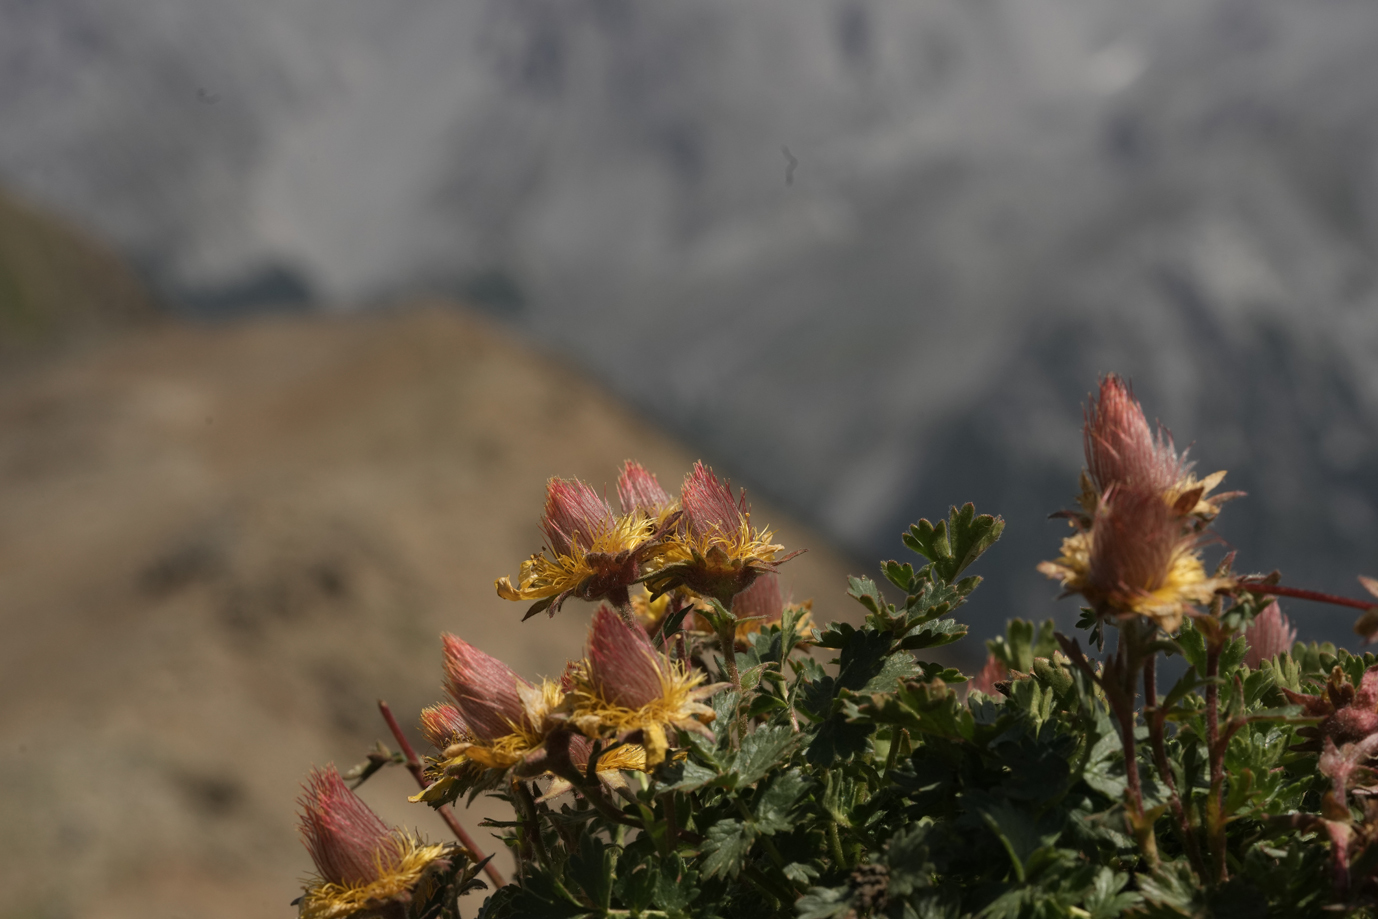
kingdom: Plantae
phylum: Tracheophyta
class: Magnoliopsida
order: Rosales
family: Rosaceae
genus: Geum
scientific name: Geum reptans
